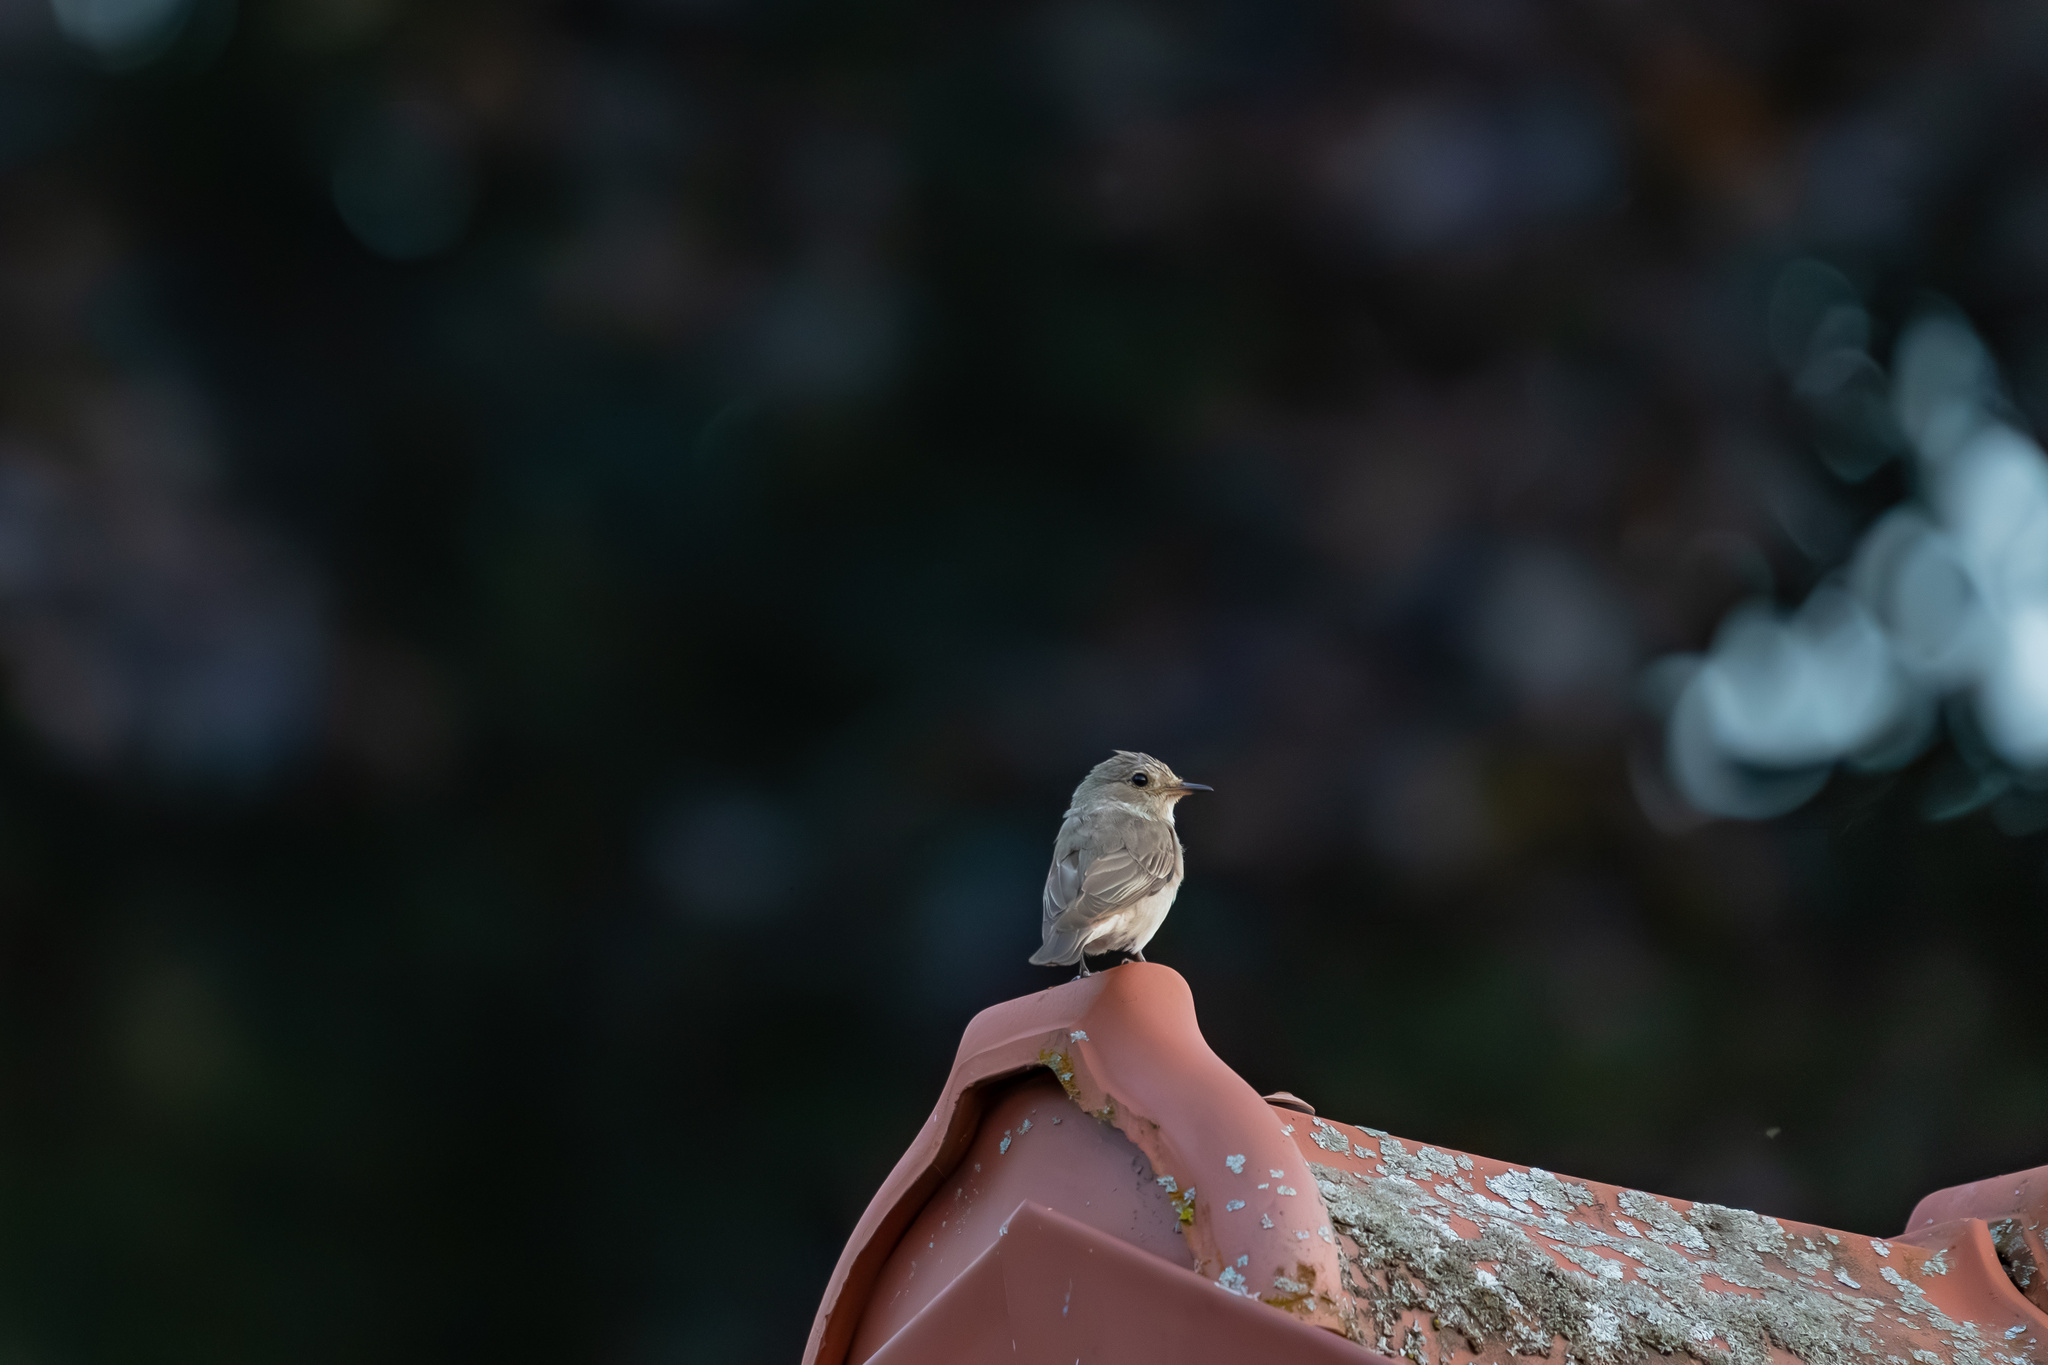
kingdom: Animalia
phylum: Chordata
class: Aves
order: Passeriformes
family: Muscicapidae
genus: Muscicapa
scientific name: Muscicapa striata
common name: Spotted flycatcher
